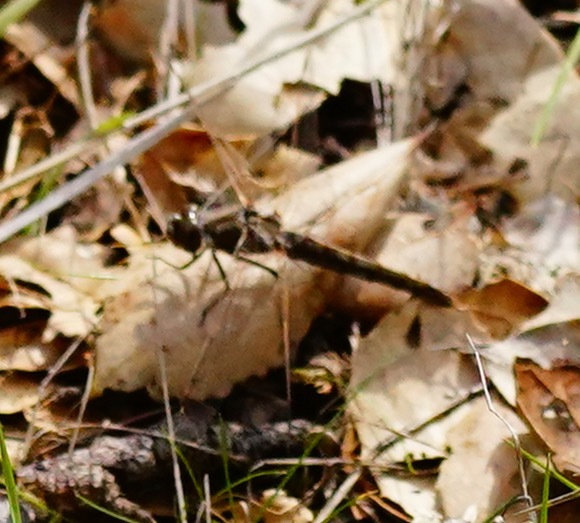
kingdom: Animalia
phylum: Arthropoda
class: Insecta
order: Odonata
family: Libellulidae
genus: Sympetrum
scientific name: Sympetrum corruptum
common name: Variegated meadowhawk
